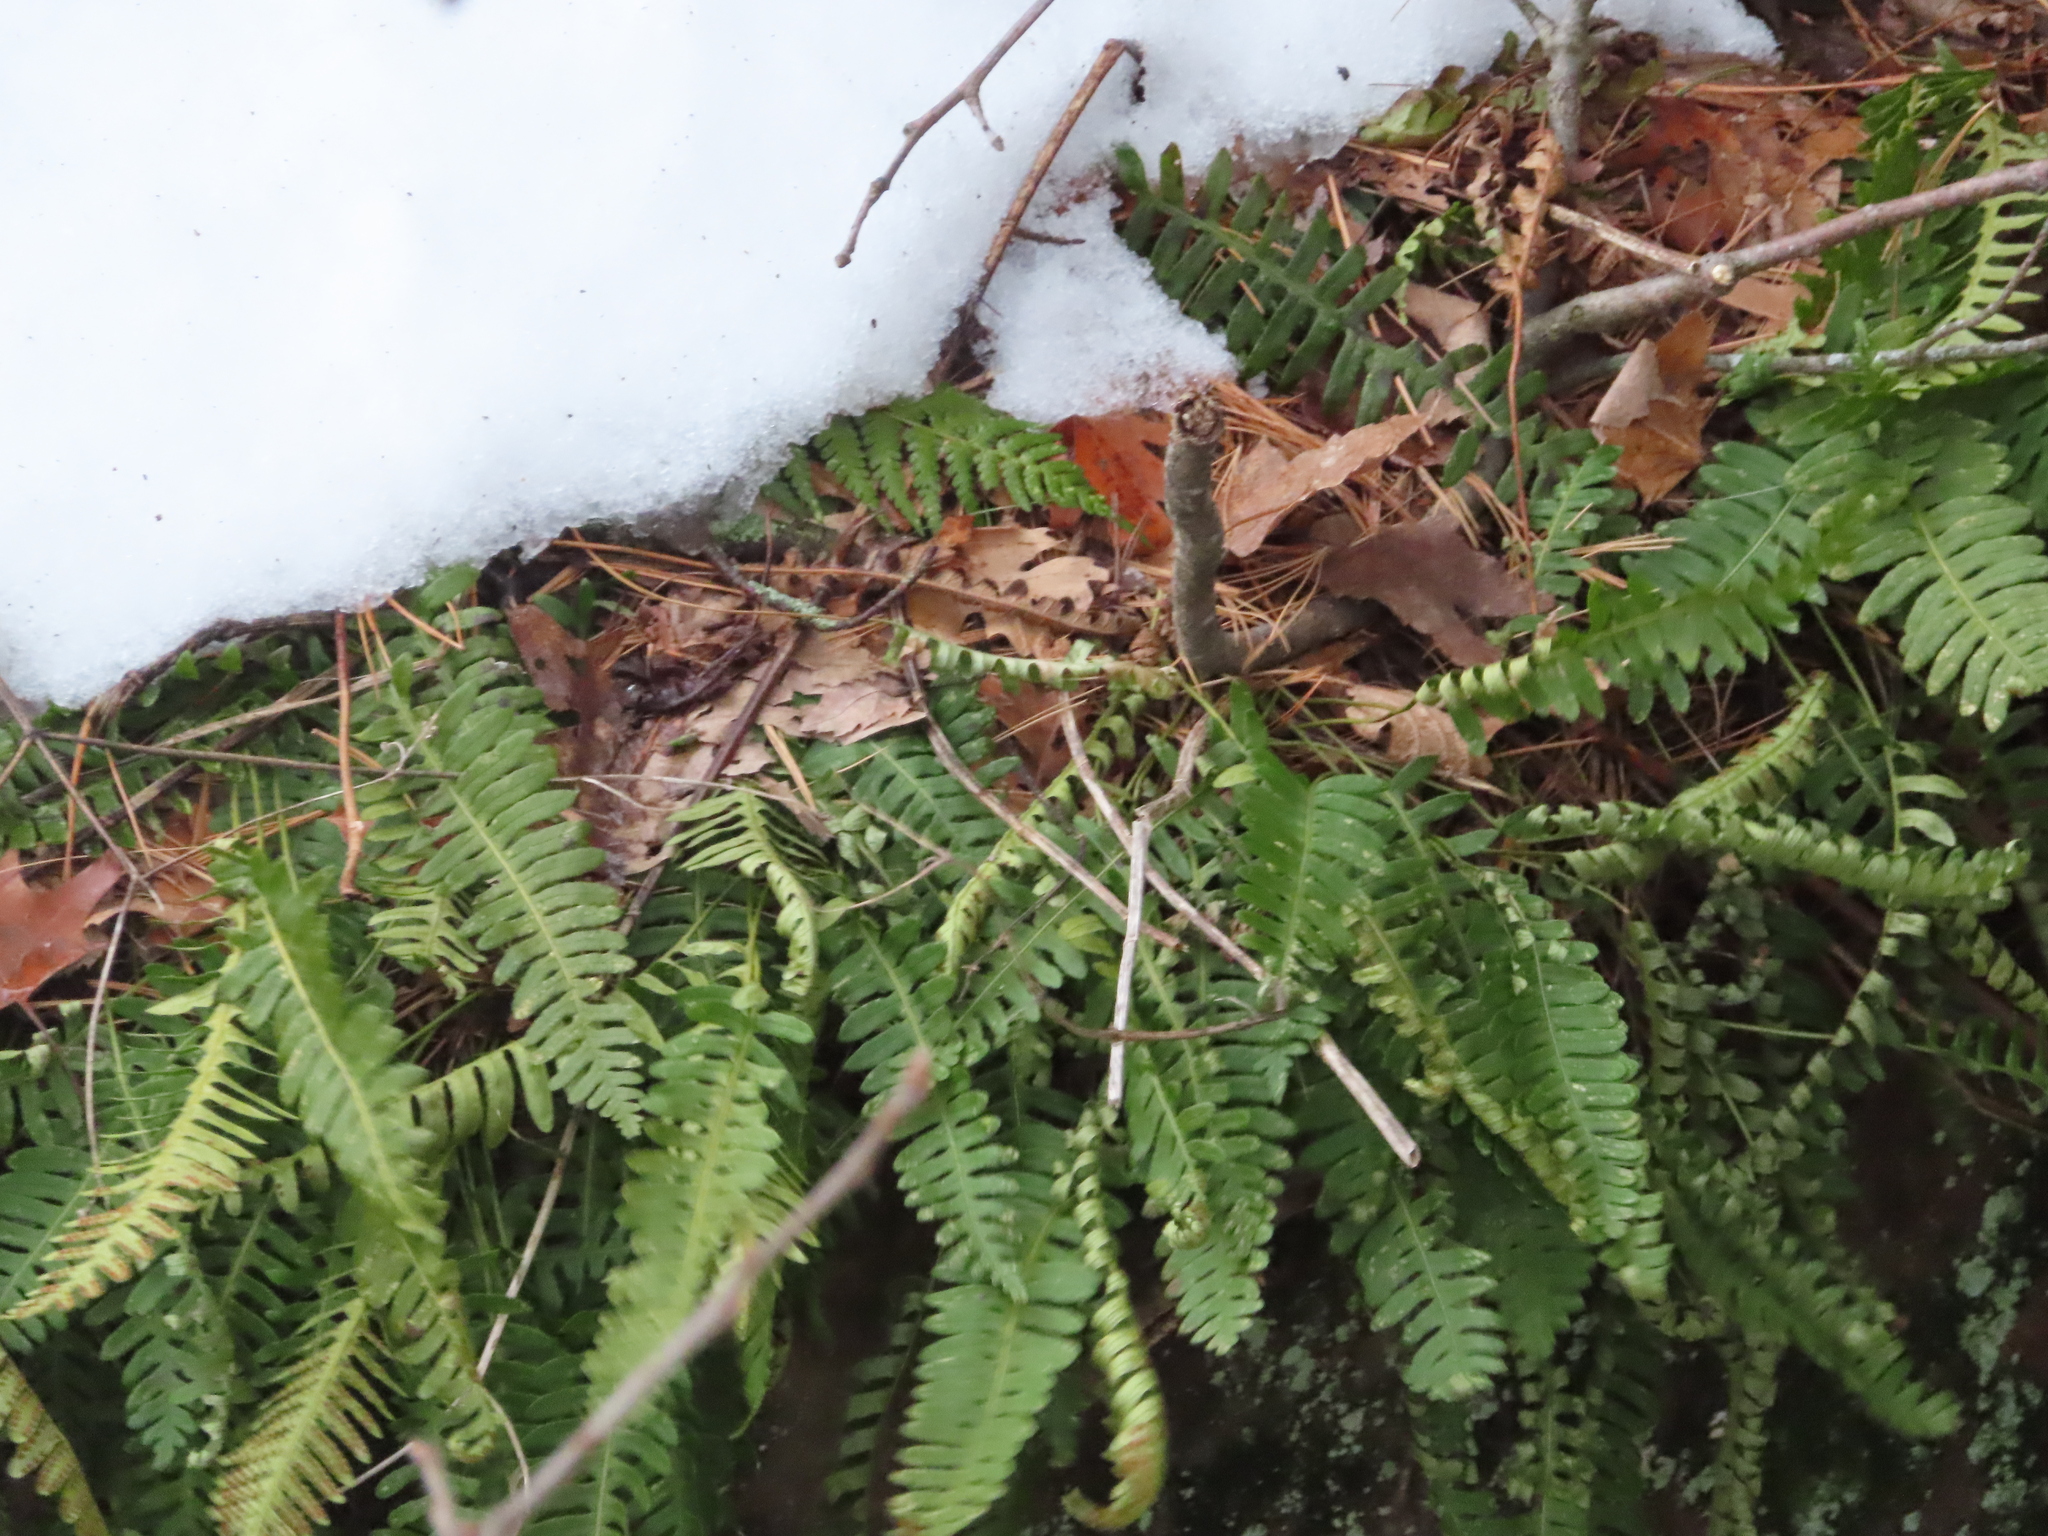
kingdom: Plantae
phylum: Tracheophyta
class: Polypodiopsida
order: Polypodiales
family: Polypodiaceae
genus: Polypodium
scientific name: Polypodium virginianum
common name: American wall fern
